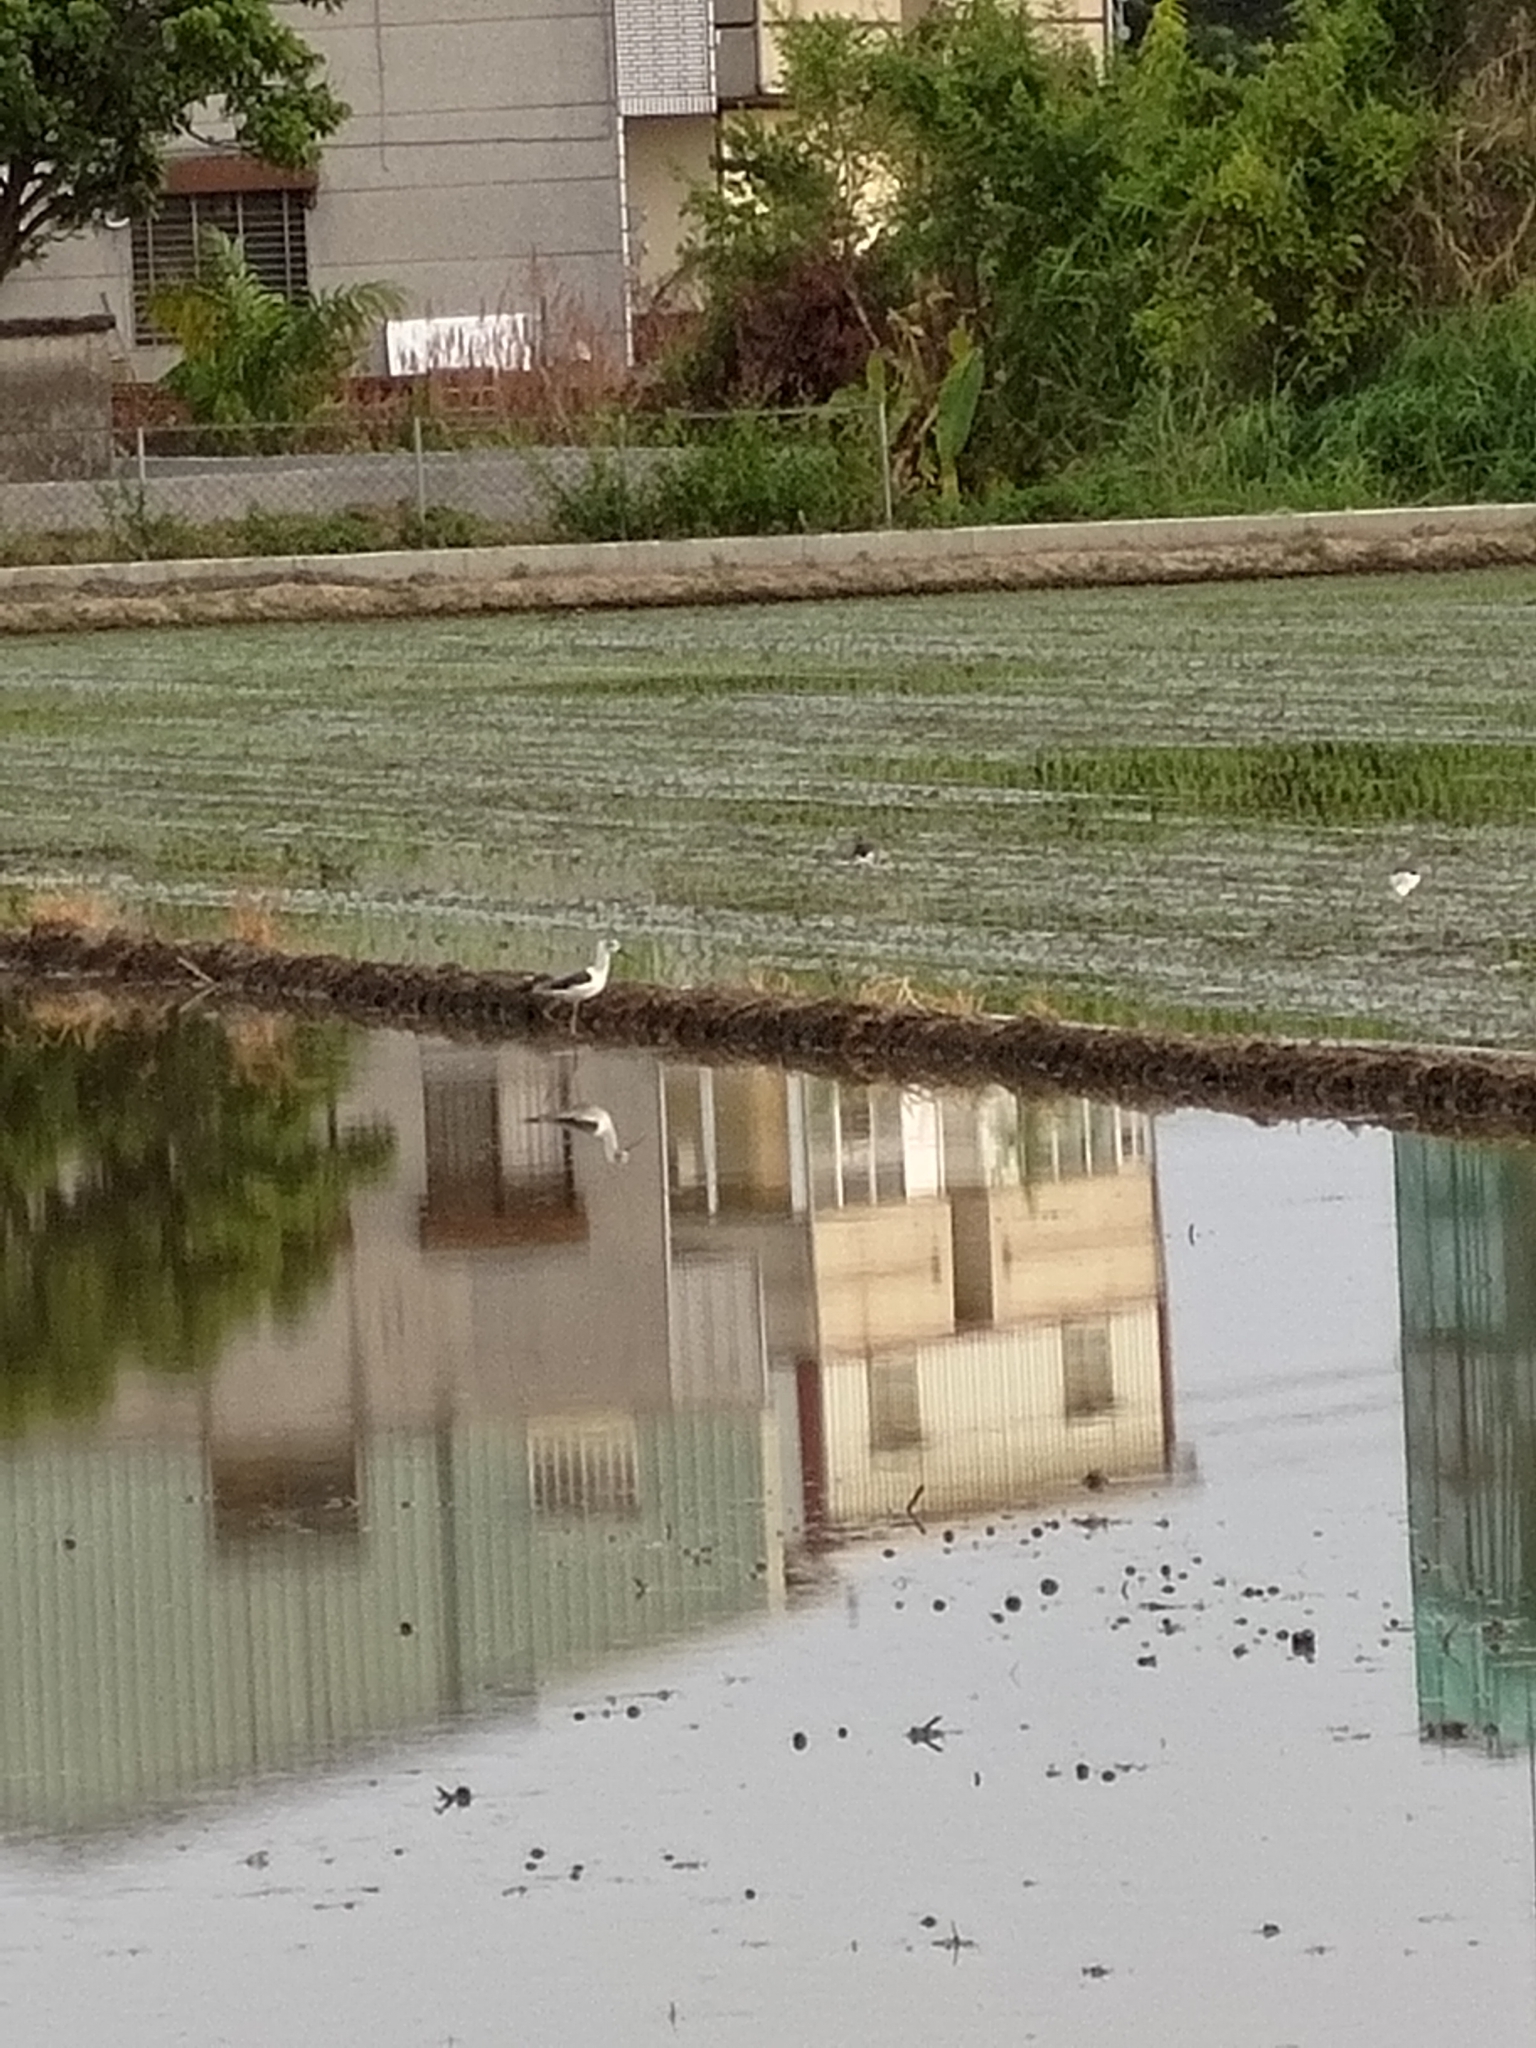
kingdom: Animalia
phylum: Chordata
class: Aves
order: Charadriiformes
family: Recurvirostridae
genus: Himantopus
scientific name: Himantopus himantopus
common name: Black-winged stilt
